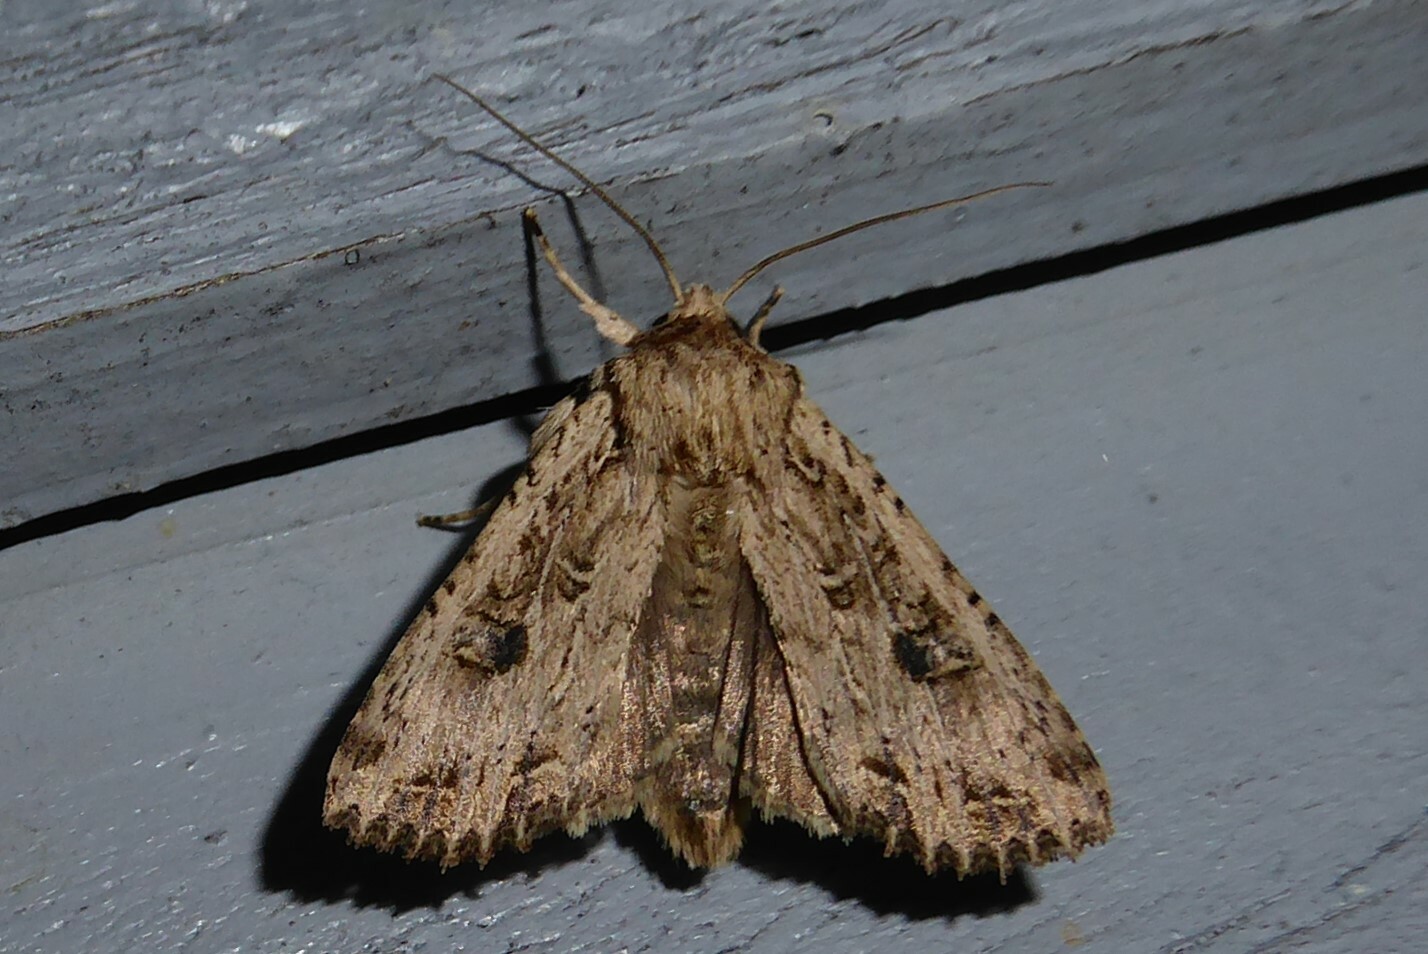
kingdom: Animalia
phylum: Arthropoda
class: Insecta
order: Lepidoptera
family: Noctuidae
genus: Ichneutica
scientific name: Ichneutica lignana
